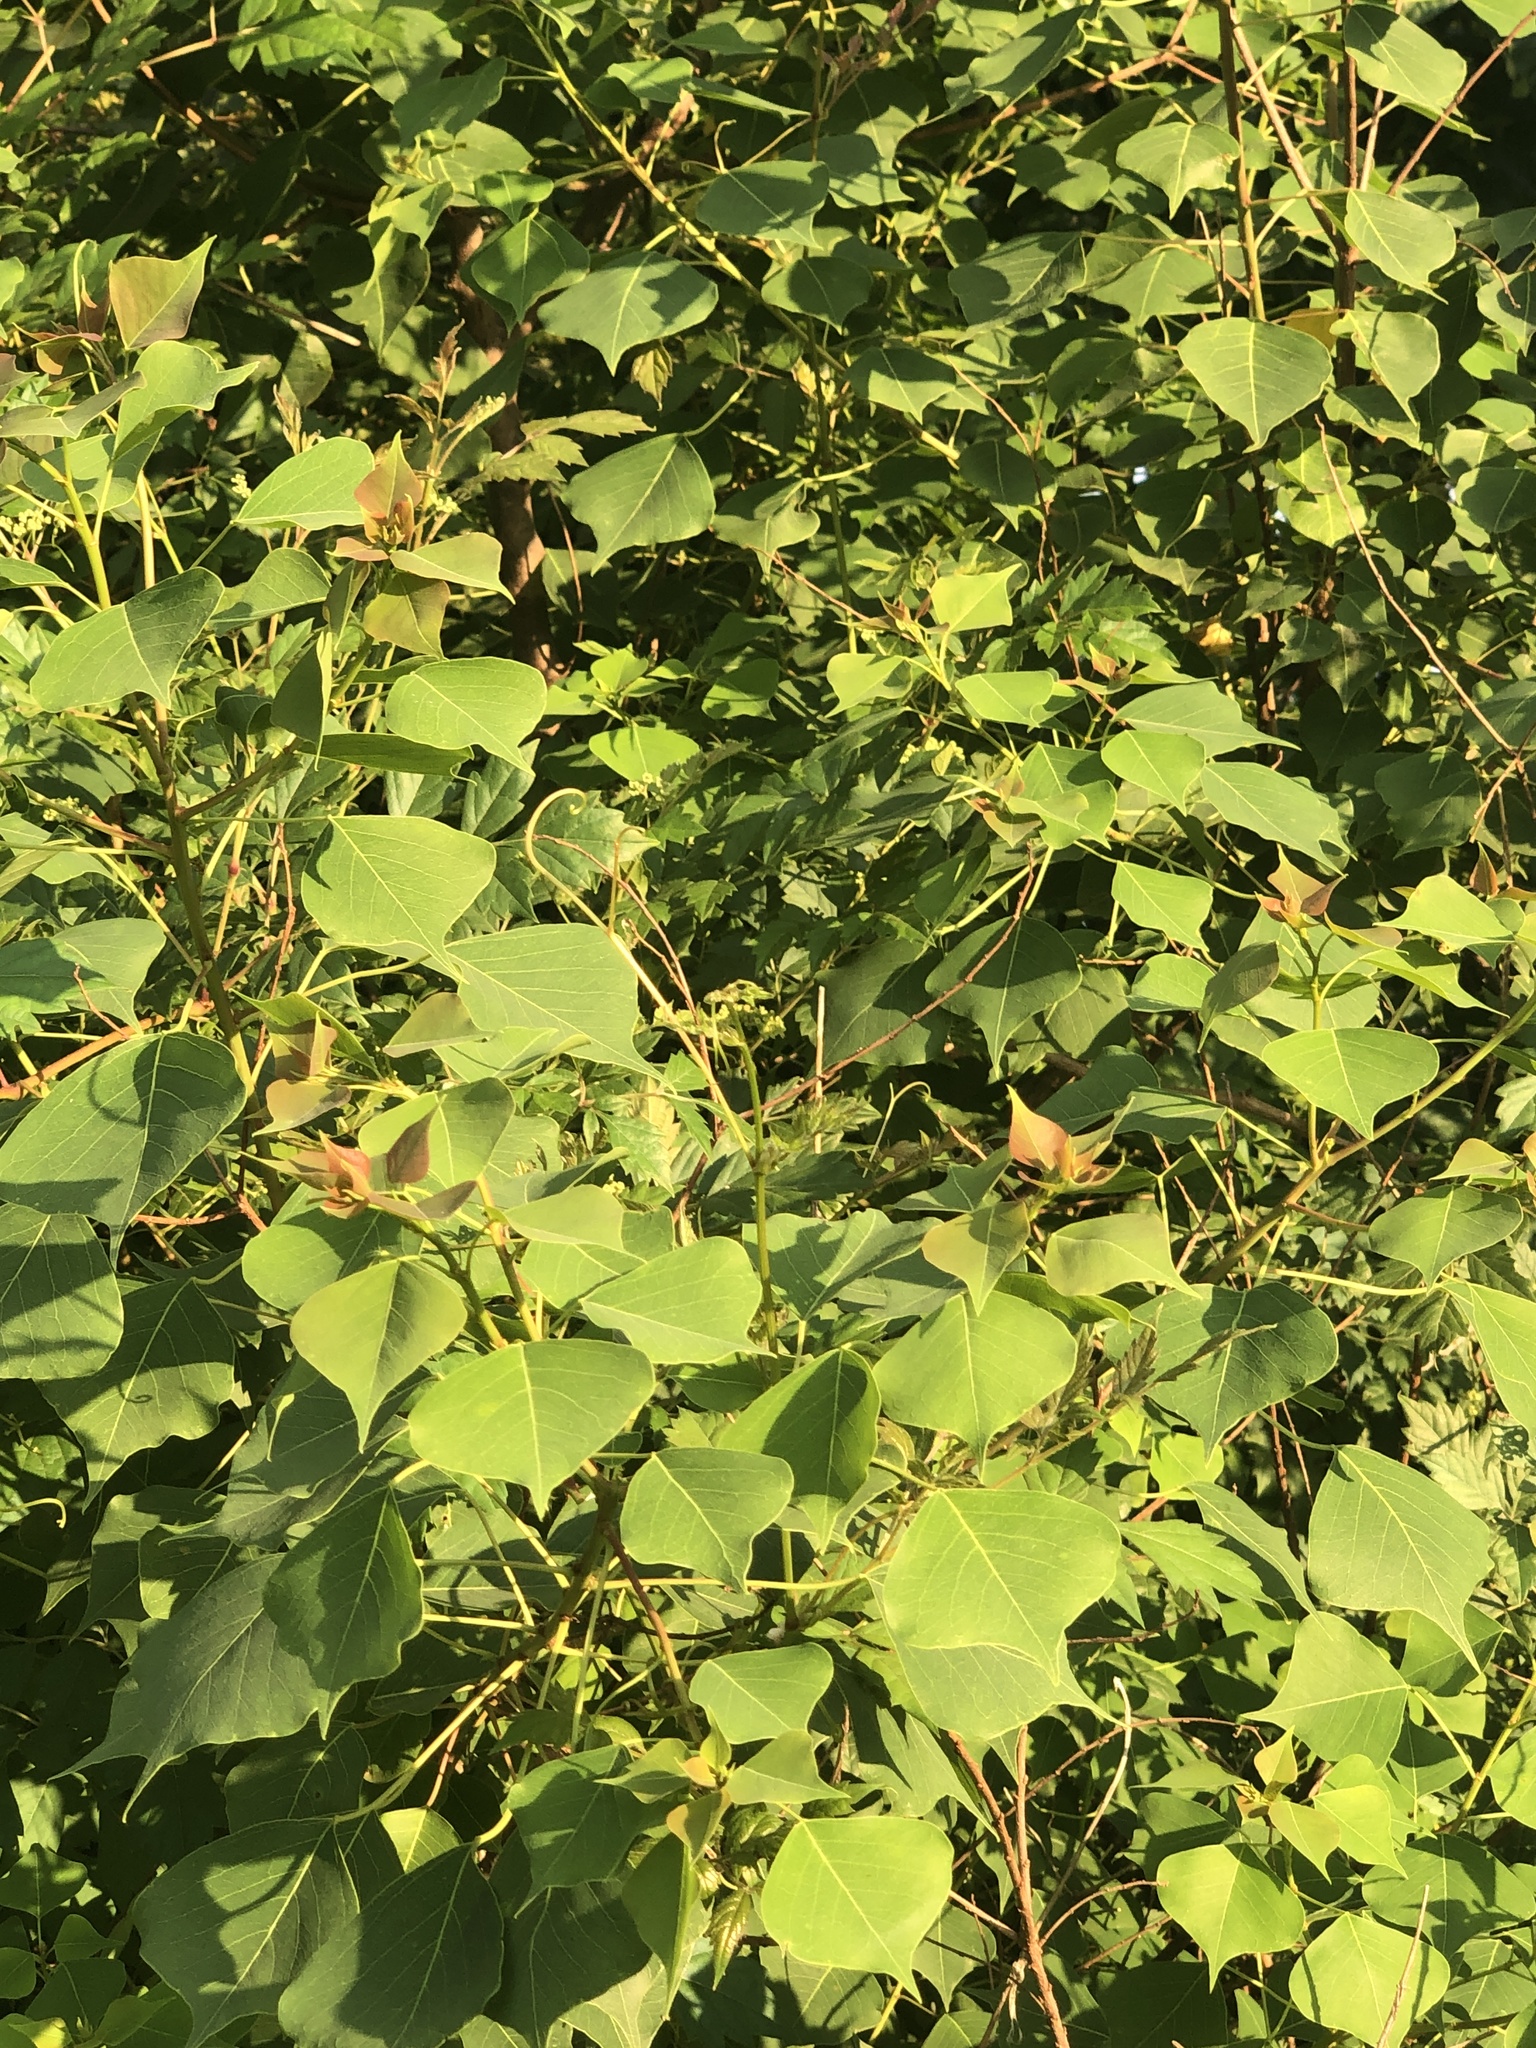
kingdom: Plantae
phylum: Tracheophyta
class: Magnoliopsida
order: Malpighiales
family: Euphorbiaceae
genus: Triadica
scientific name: Triadica sebifera
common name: Chinese tallow
